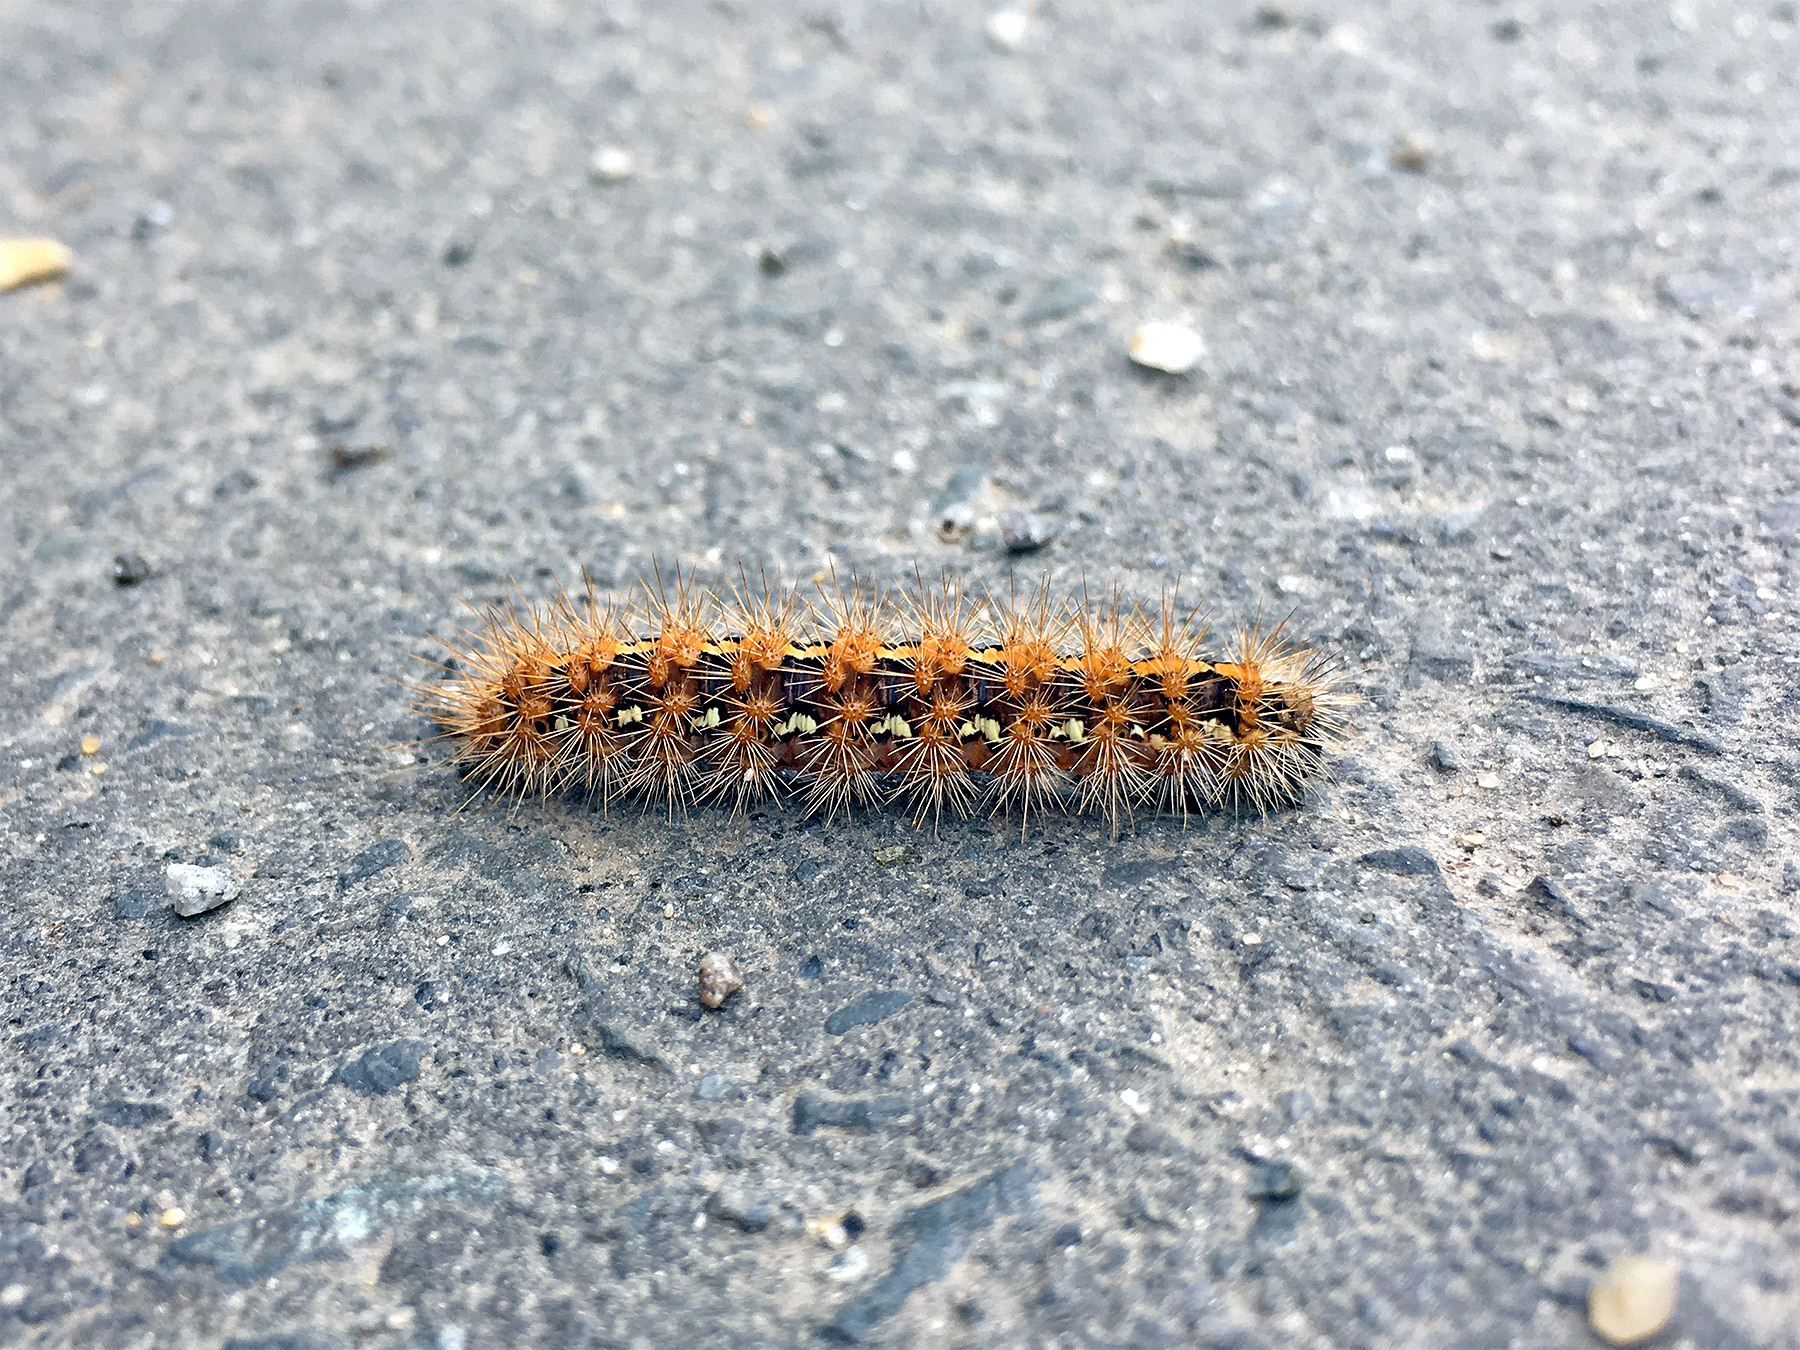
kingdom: Animalia
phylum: Arthropoda
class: Insecta
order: Lepidoptera
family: Erebidae
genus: Euplagia
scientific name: Euplagia quadripunctaria
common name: Jersey tiger
